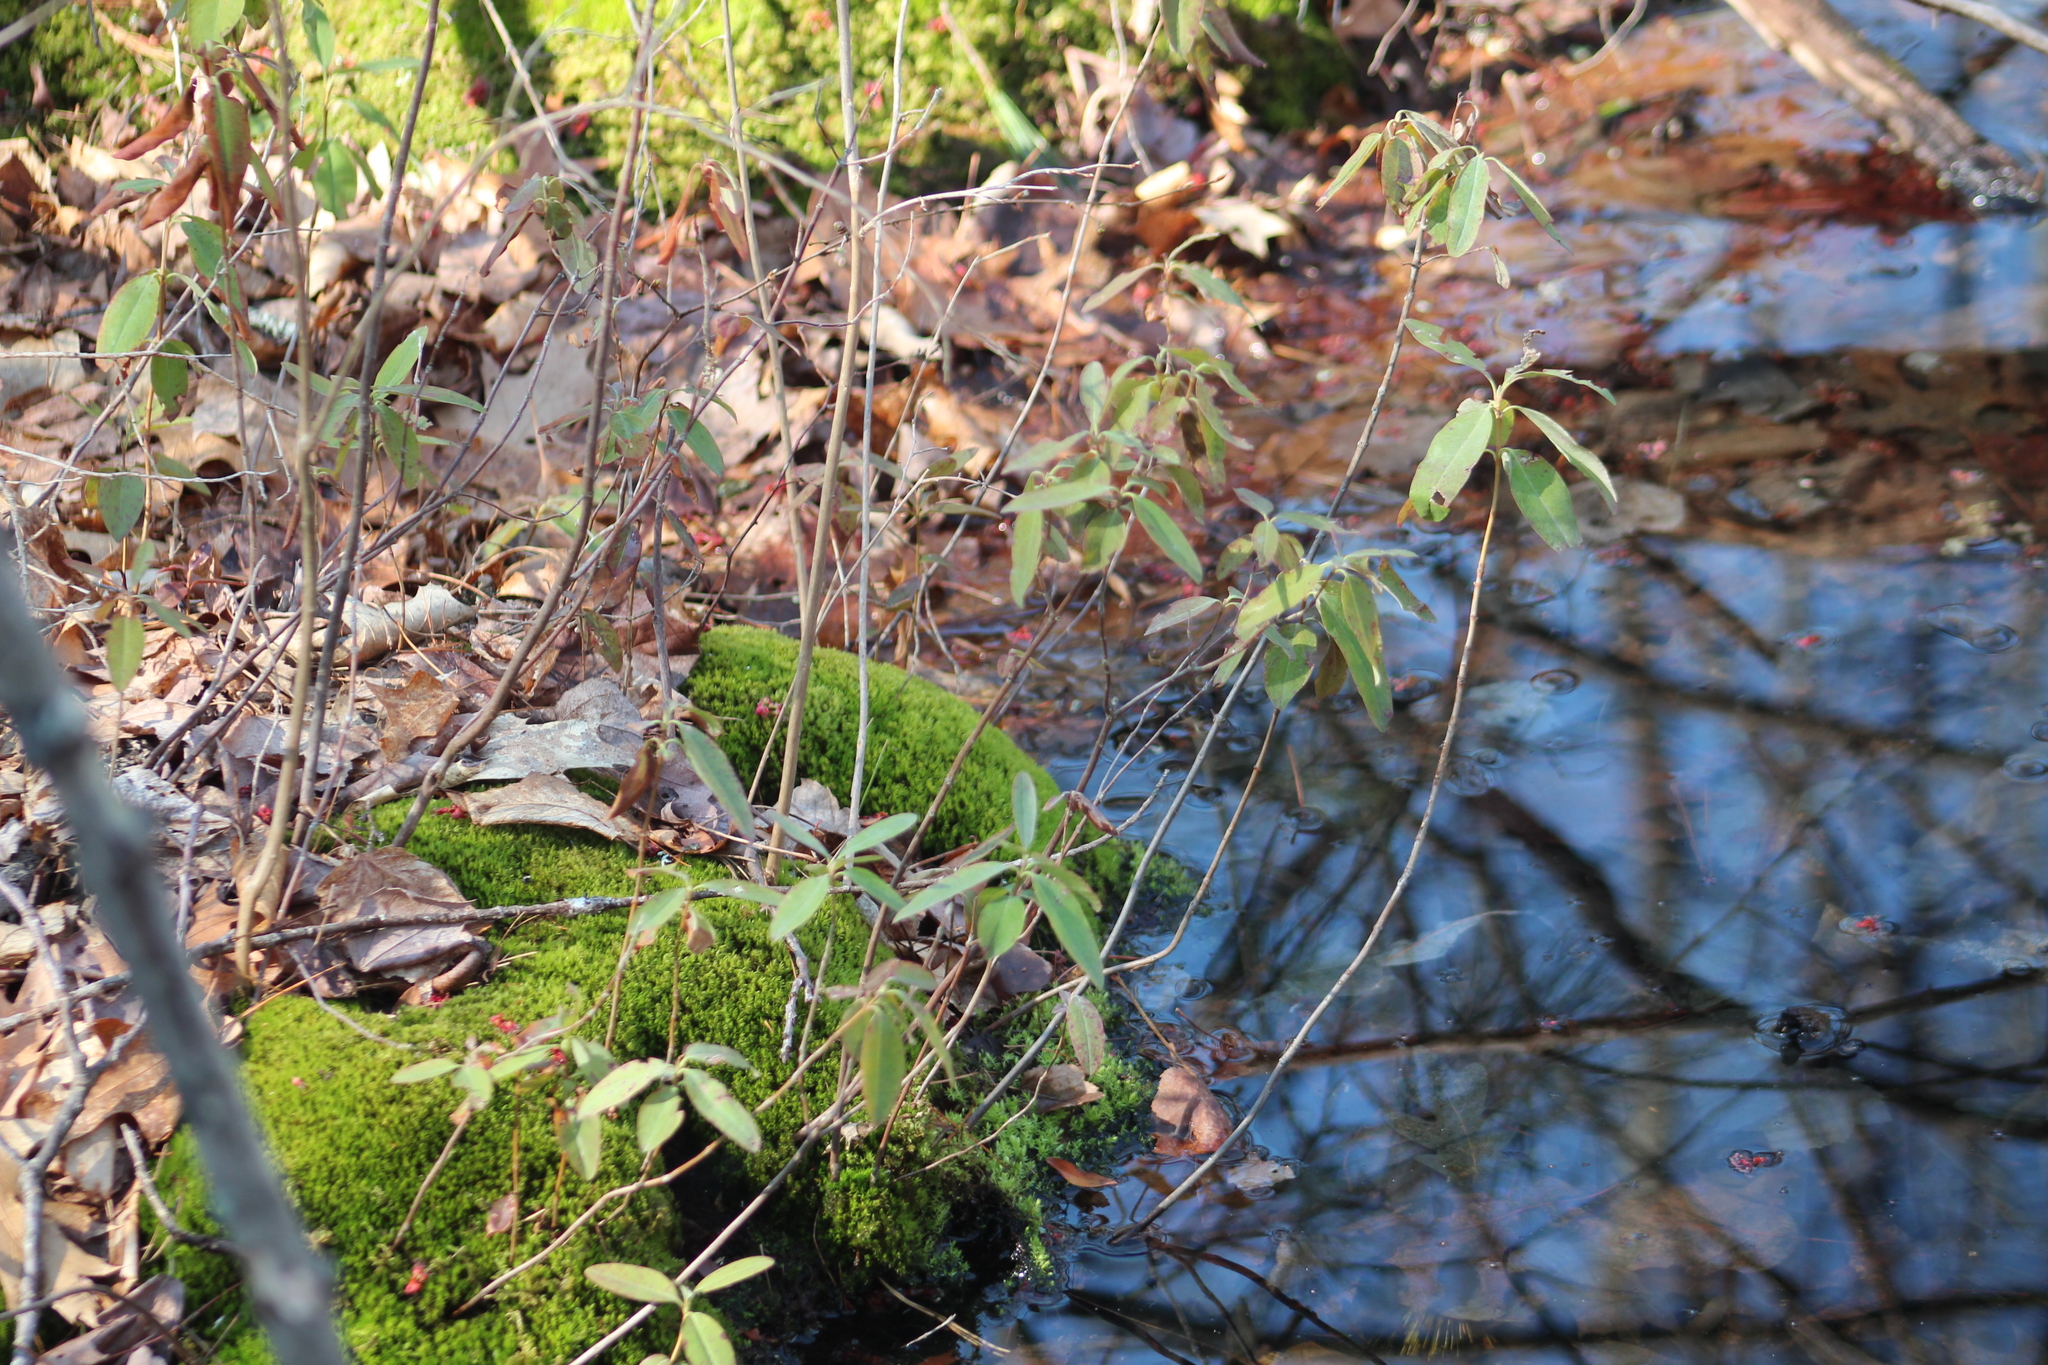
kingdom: Plantae
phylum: Tracheophyta
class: Magnoliopsida
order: Ericales
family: Ericaceae
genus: Kalmia
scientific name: Kalmia angustifolia
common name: Sheep-laurel
